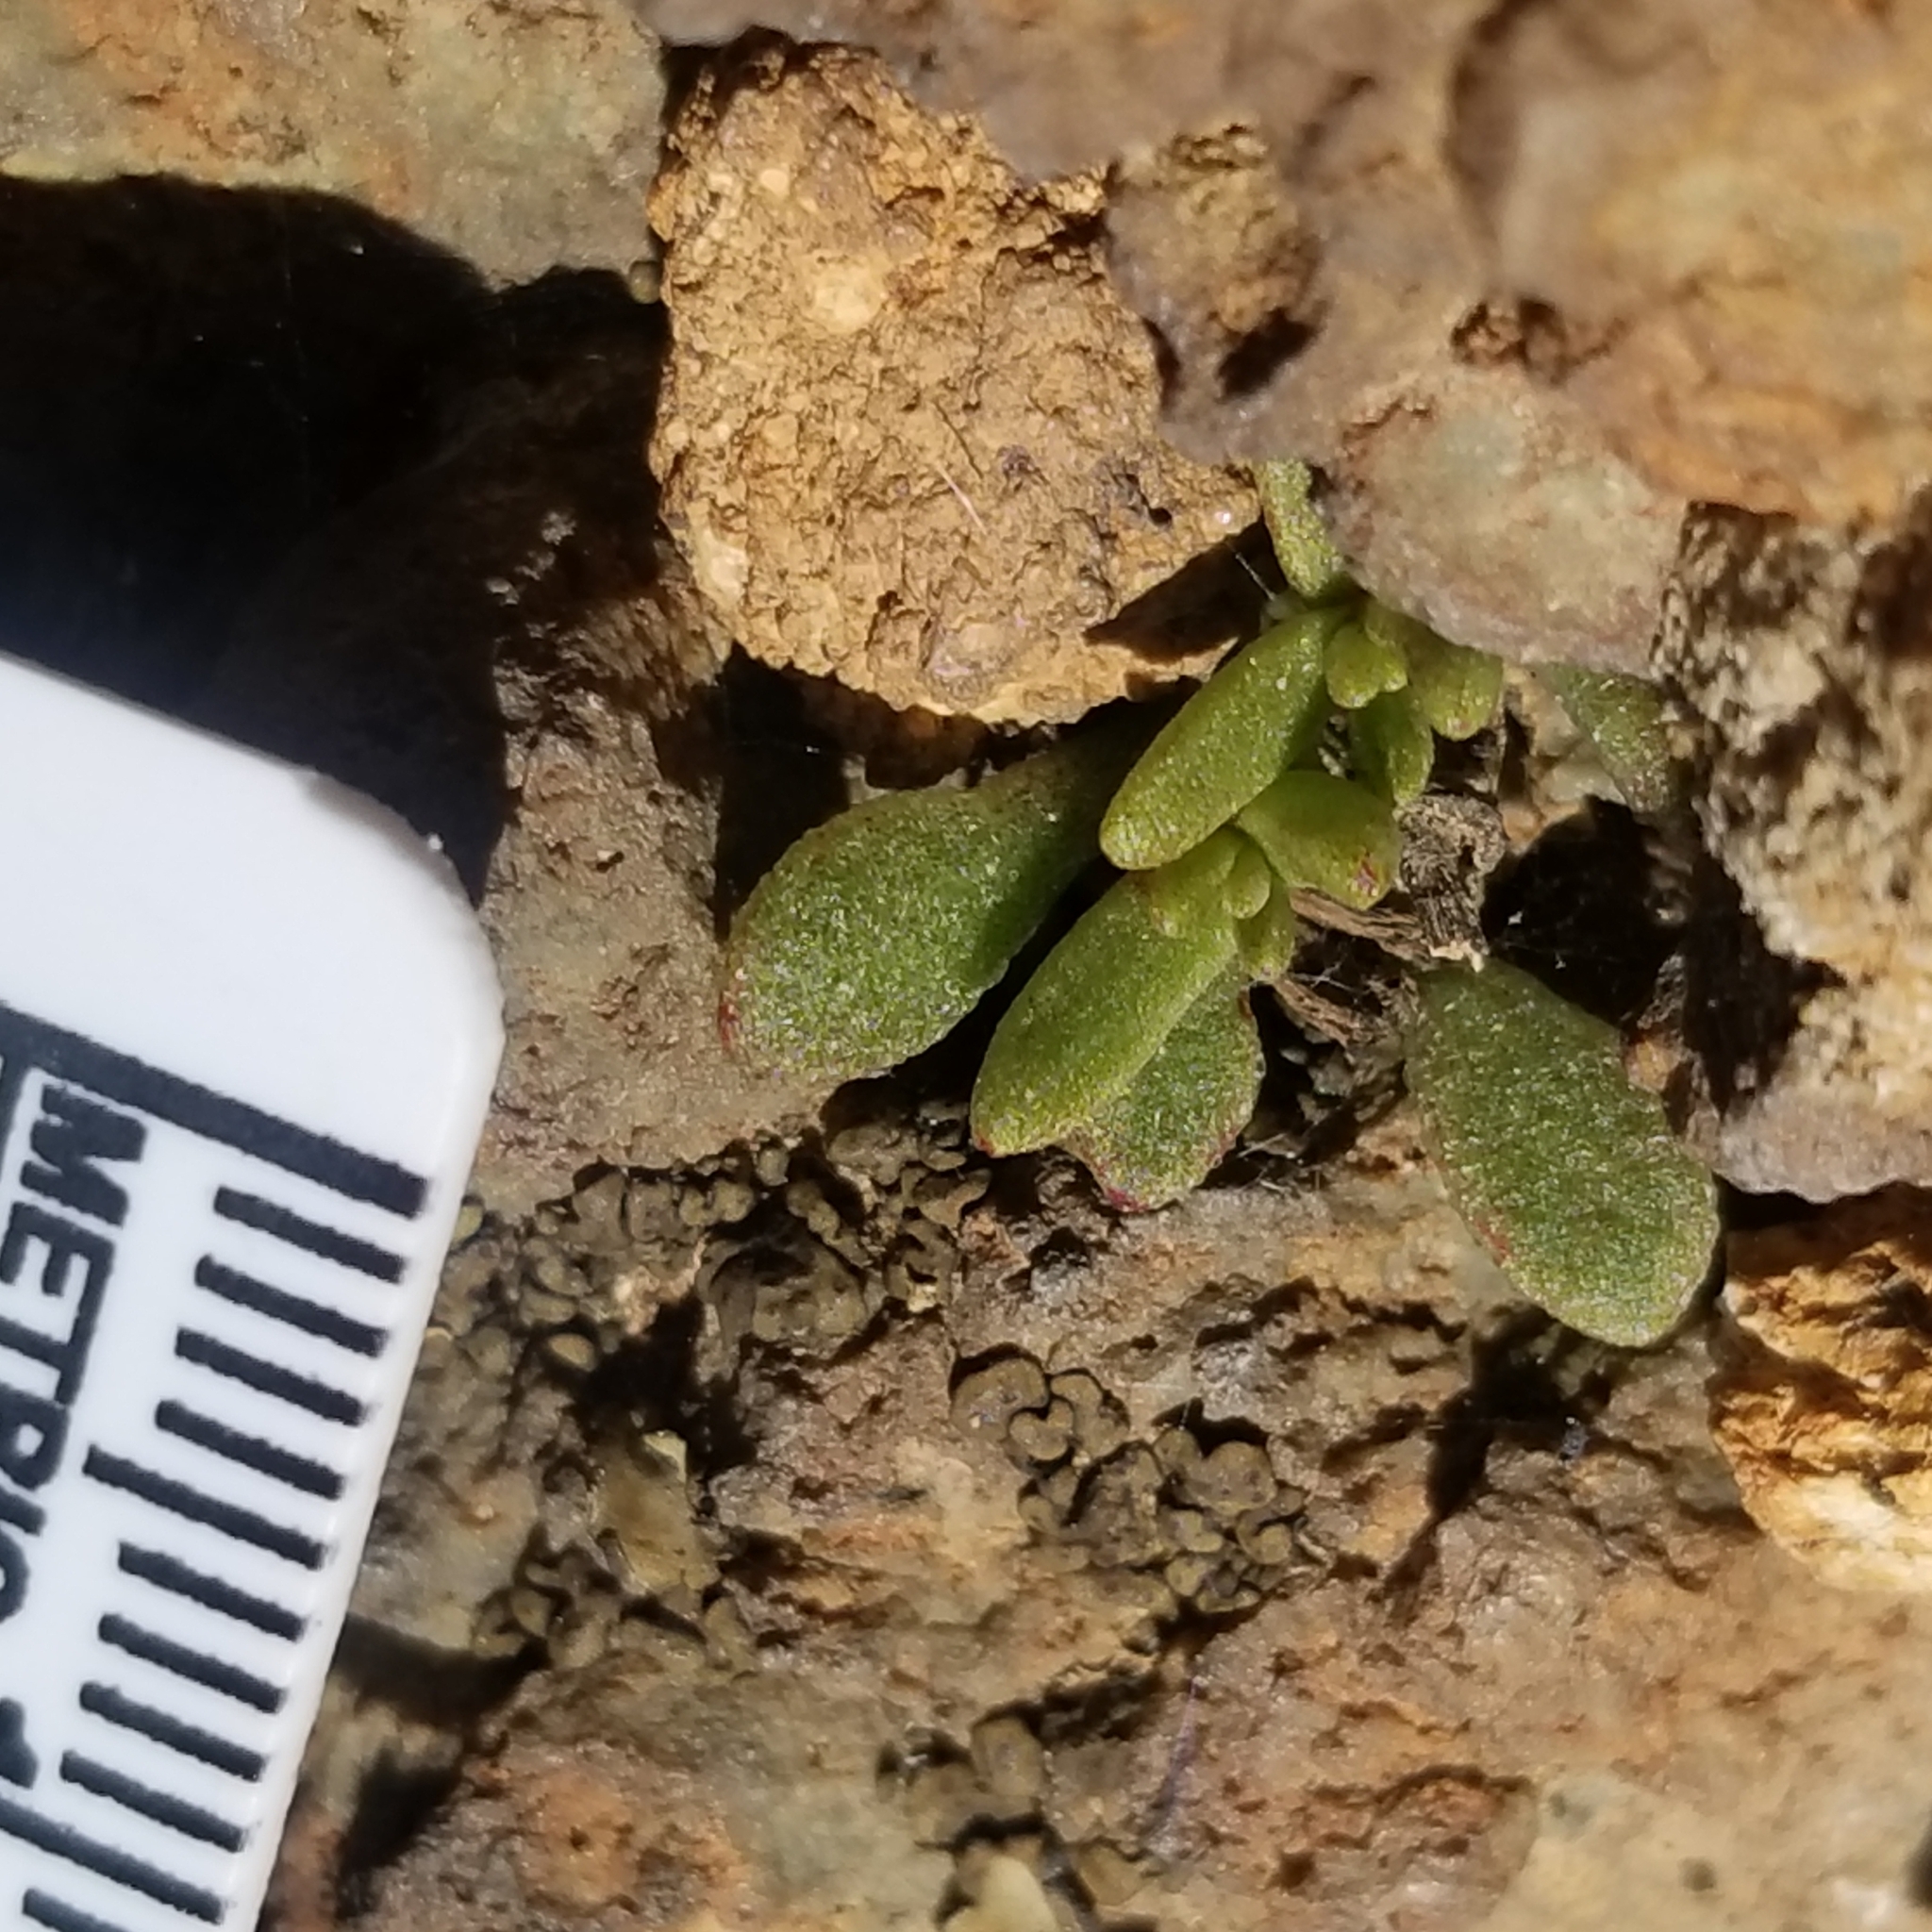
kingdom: Plantae
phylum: Tracheophyta
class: Magnoliopsida
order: Saxifragales
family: Crassulaceae
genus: Dudleya
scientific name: Dudleya variegata
